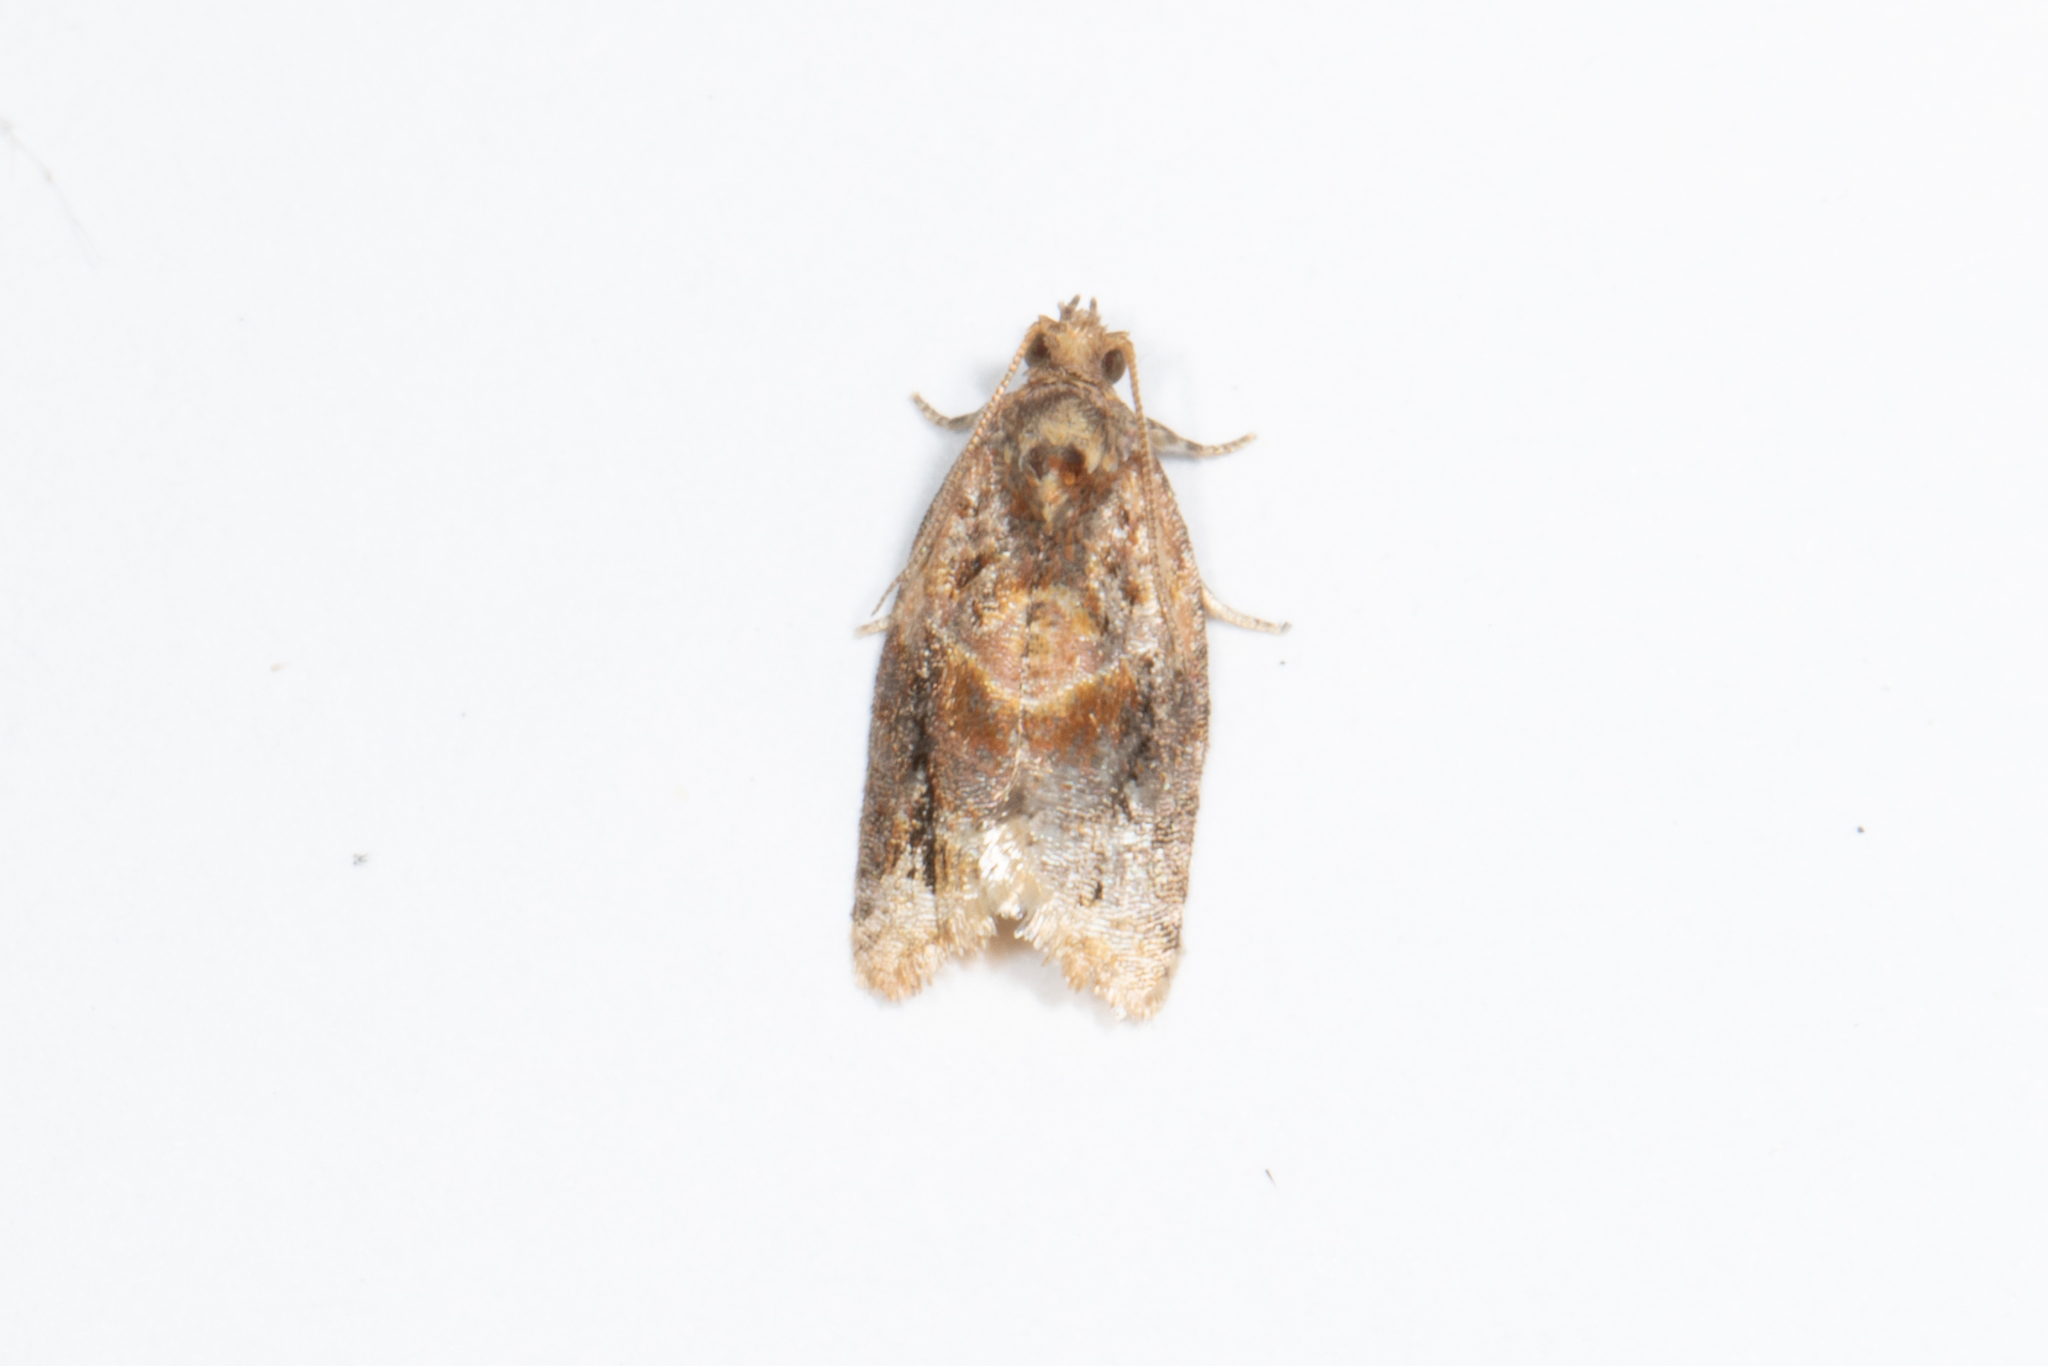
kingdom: Animalia
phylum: Arthropoda
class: Insecta
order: Lepidoptera
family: Tortricidae
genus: Argyrotaenia
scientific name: Argyrotaenia velutinana
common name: Red-banded leafroller moth
